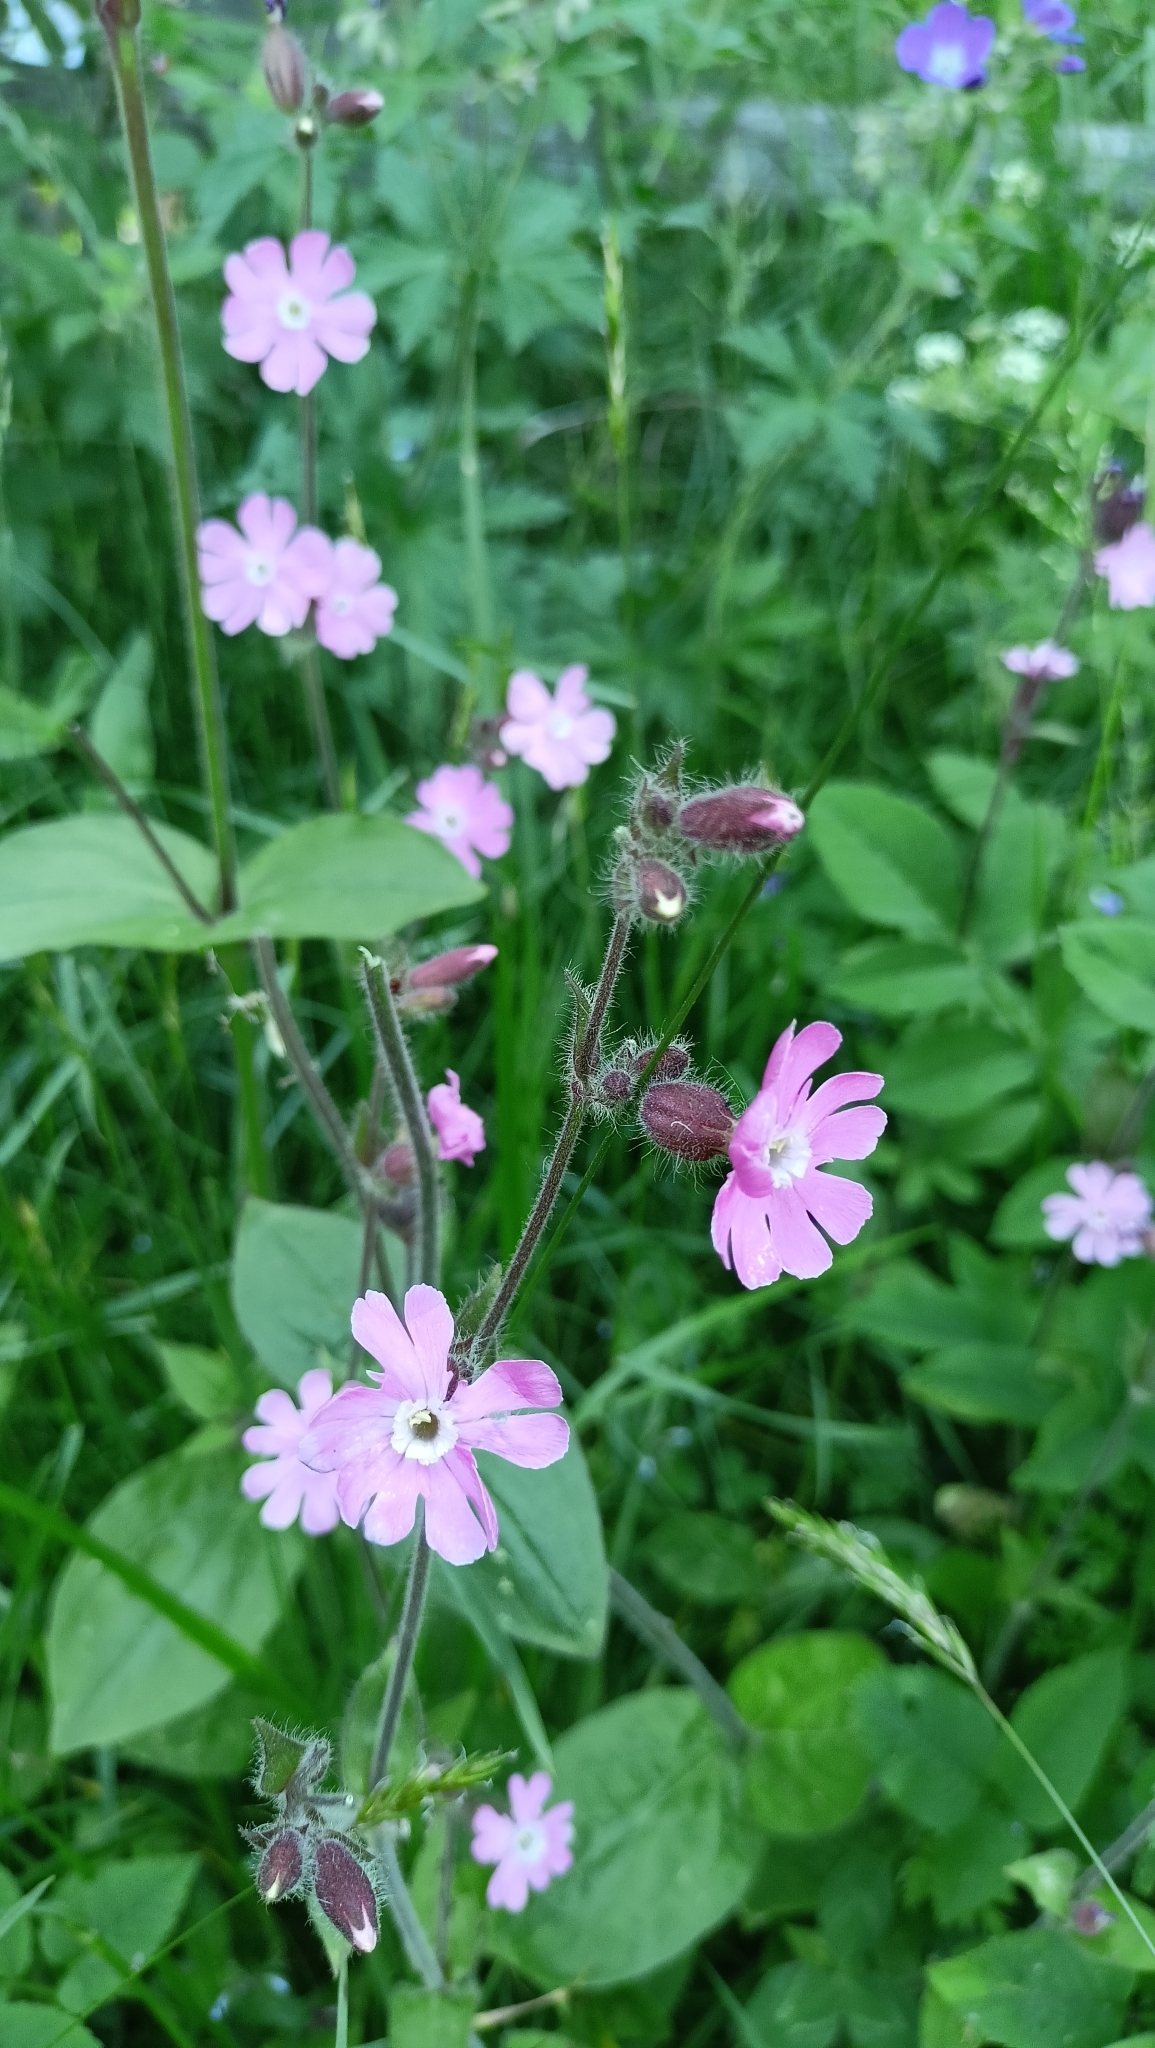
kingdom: Plantae
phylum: Tracheophyta
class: Magnoliopsida
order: Caryophyllales
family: Caryophyllaceae
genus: Silene
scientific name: Silene dioica
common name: Red campion
